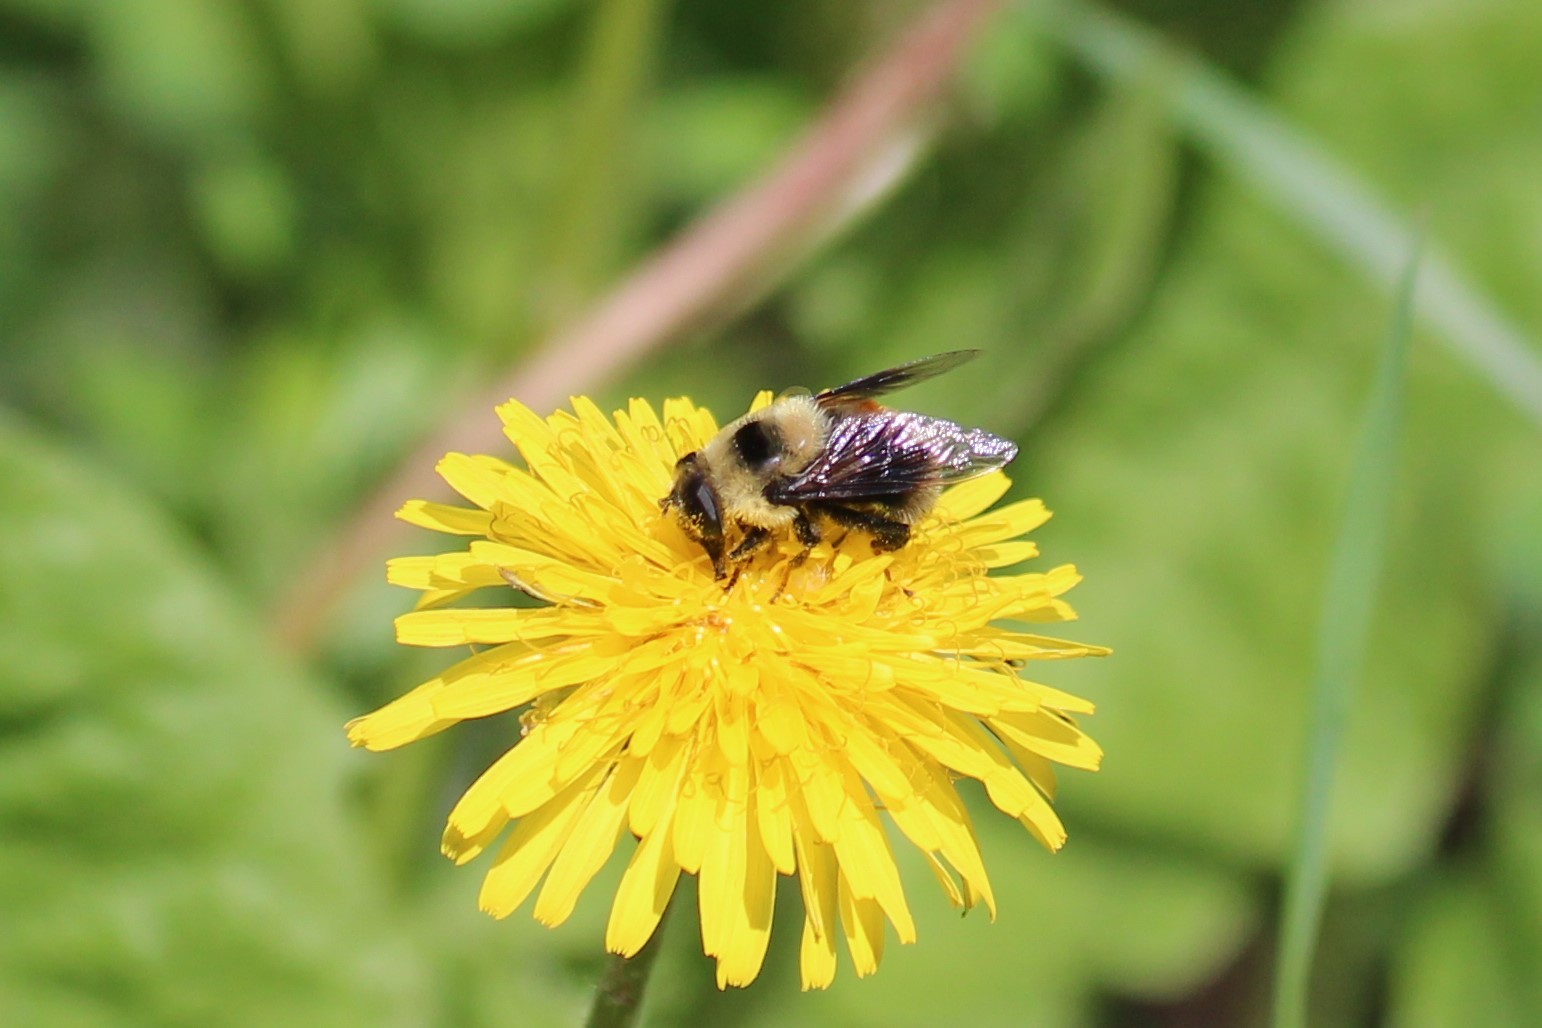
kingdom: Animalia
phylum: Arthropoda
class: Insecta
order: Diptera
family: Syrphidae
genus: Eristalis
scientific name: Eristalis flavipes
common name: Orange-legged drone fly
